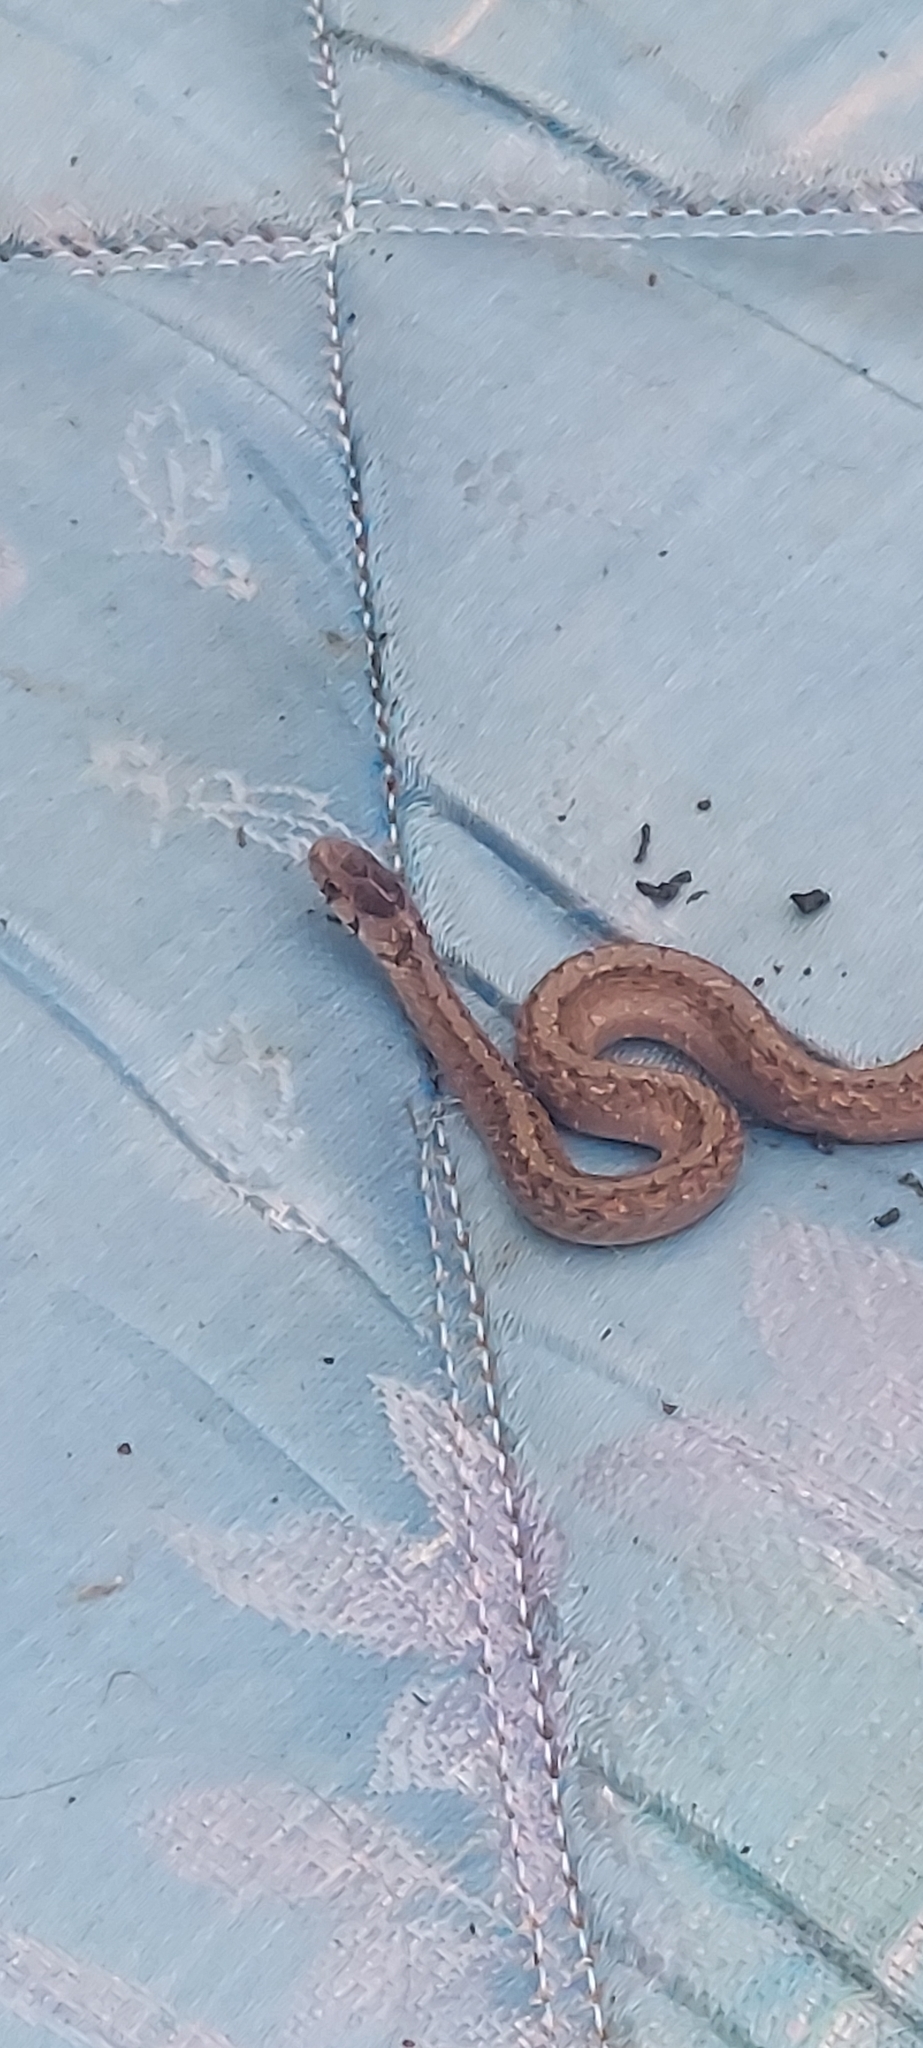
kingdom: Animalia
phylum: Chordata
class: Squamata
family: Colubridae
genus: Storeria
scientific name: Storeria dekayi
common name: (dekay’s) brown snake
